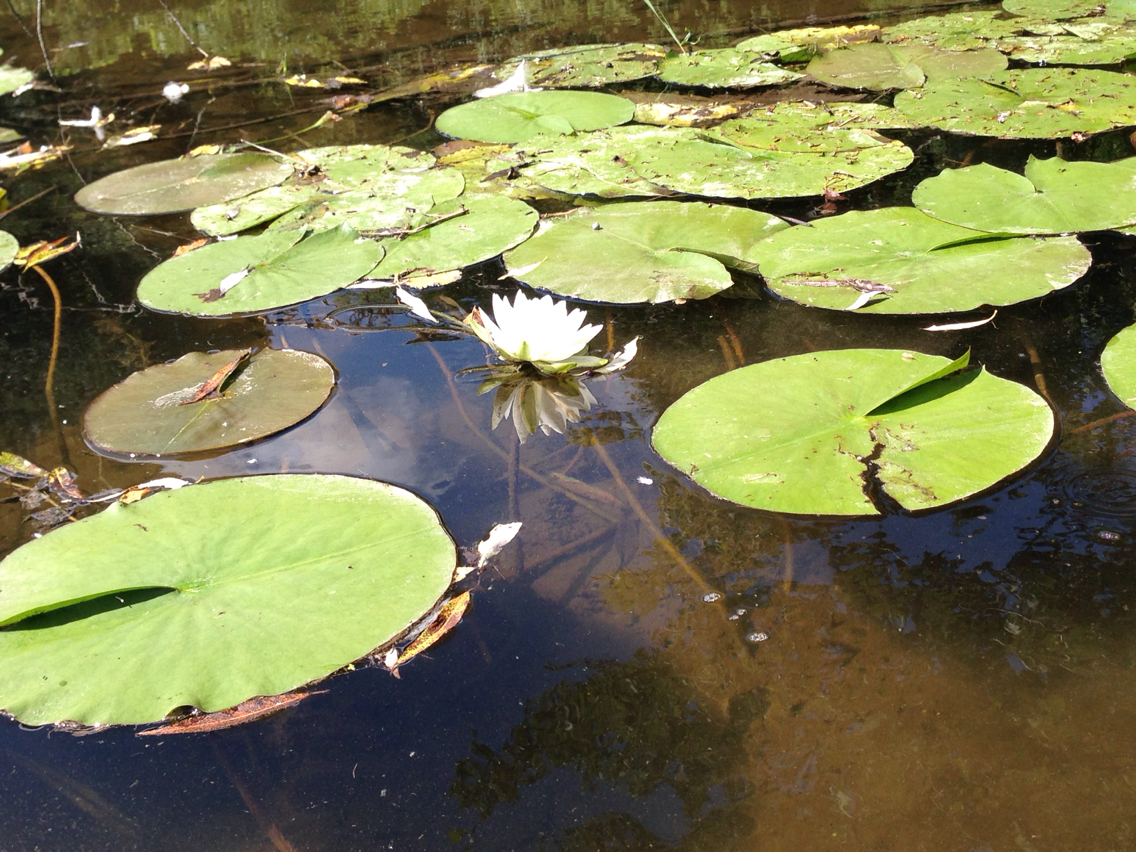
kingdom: Plantae
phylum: Tracheophyta
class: Magnoliopsida
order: Nymphaeales
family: Nymphaeaceae
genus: Nymphaea
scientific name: Nymphaea odorata
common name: Fragrant water-lily
